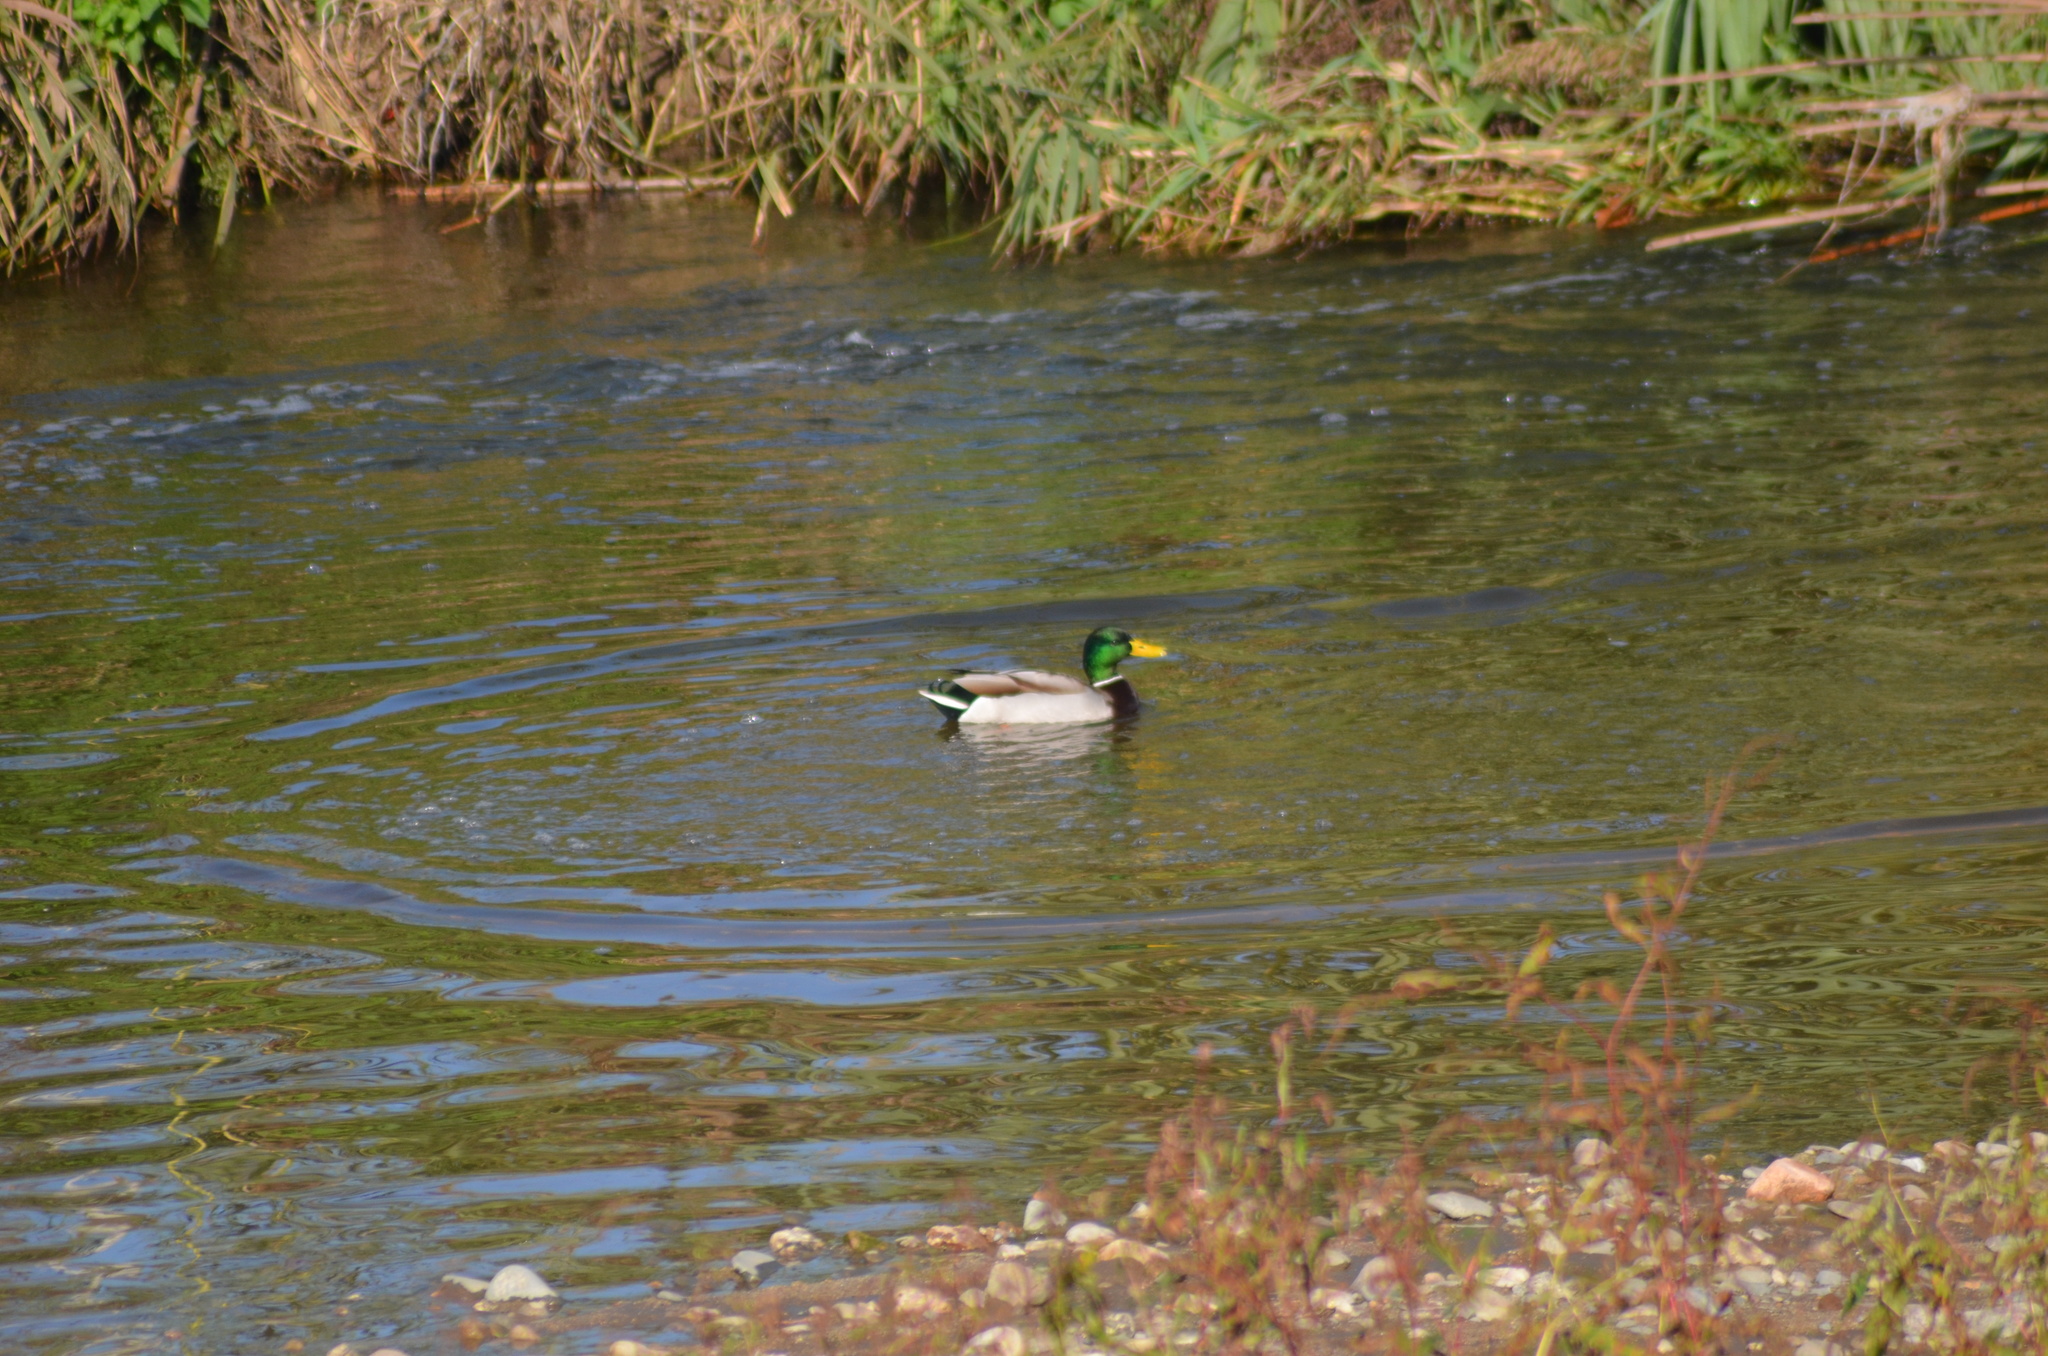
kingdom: Animalia
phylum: Chordata
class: Aves
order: Anseriformes
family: Anatidae
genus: Anas
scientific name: Anas platyrhynchos
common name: Mallard
